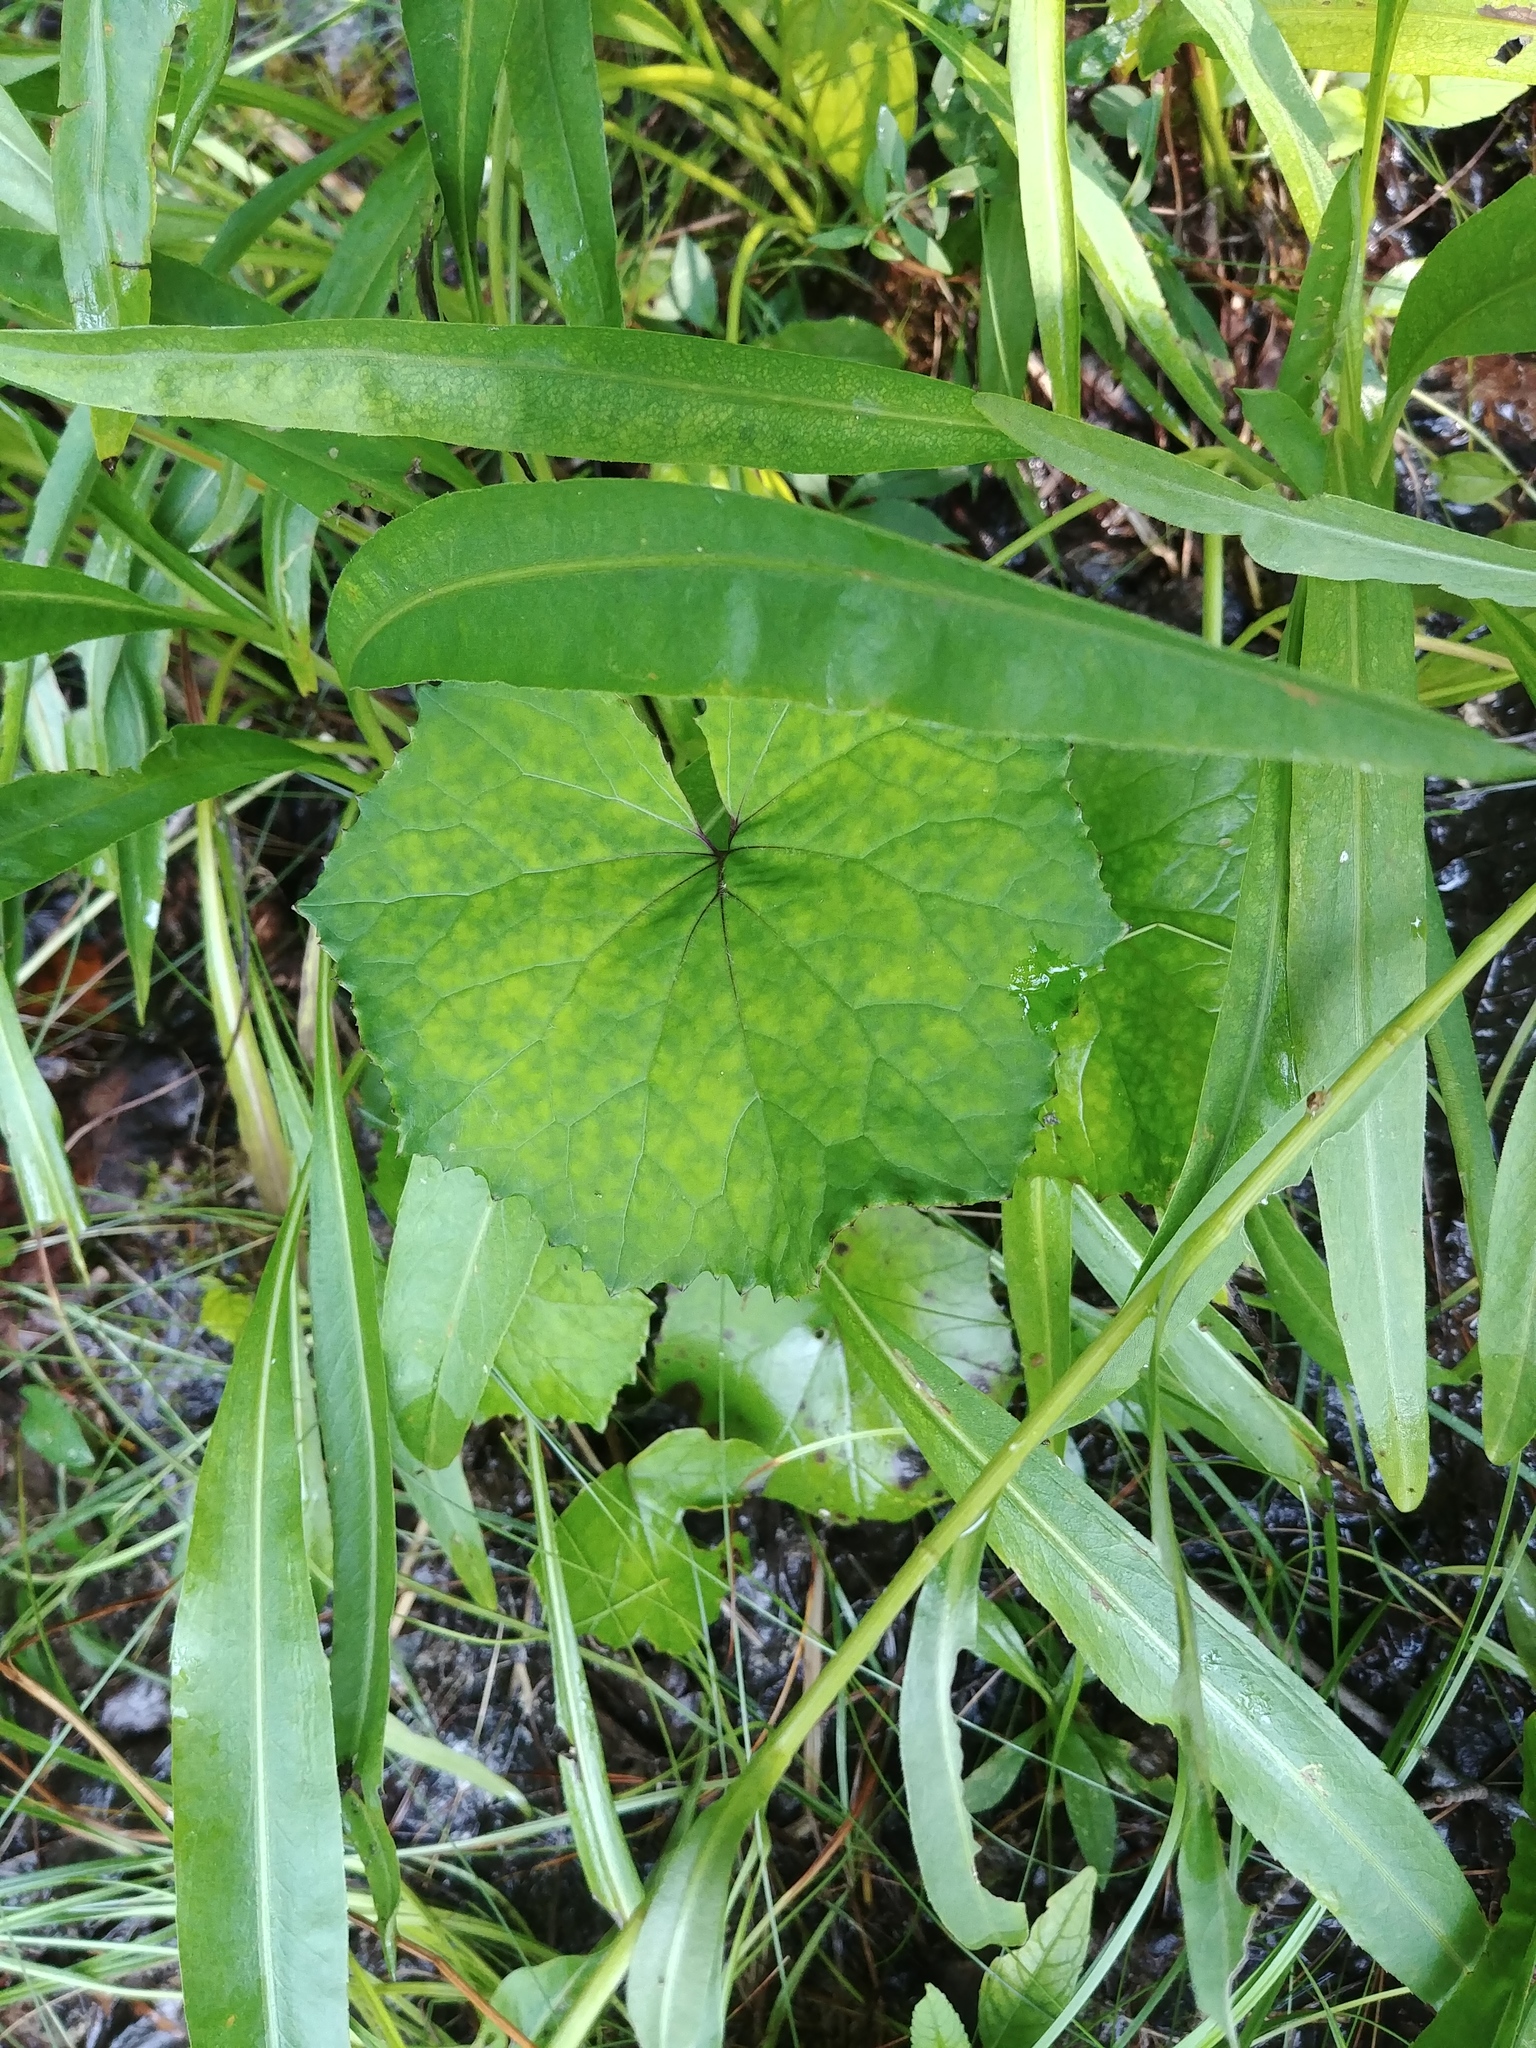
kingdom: Plantae
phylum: Tracheophyta
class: Magnoliopsida
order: Asterales
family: Asteraceae
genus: Tussilago
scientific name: Tussilago farfara
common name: Coltsfoot
